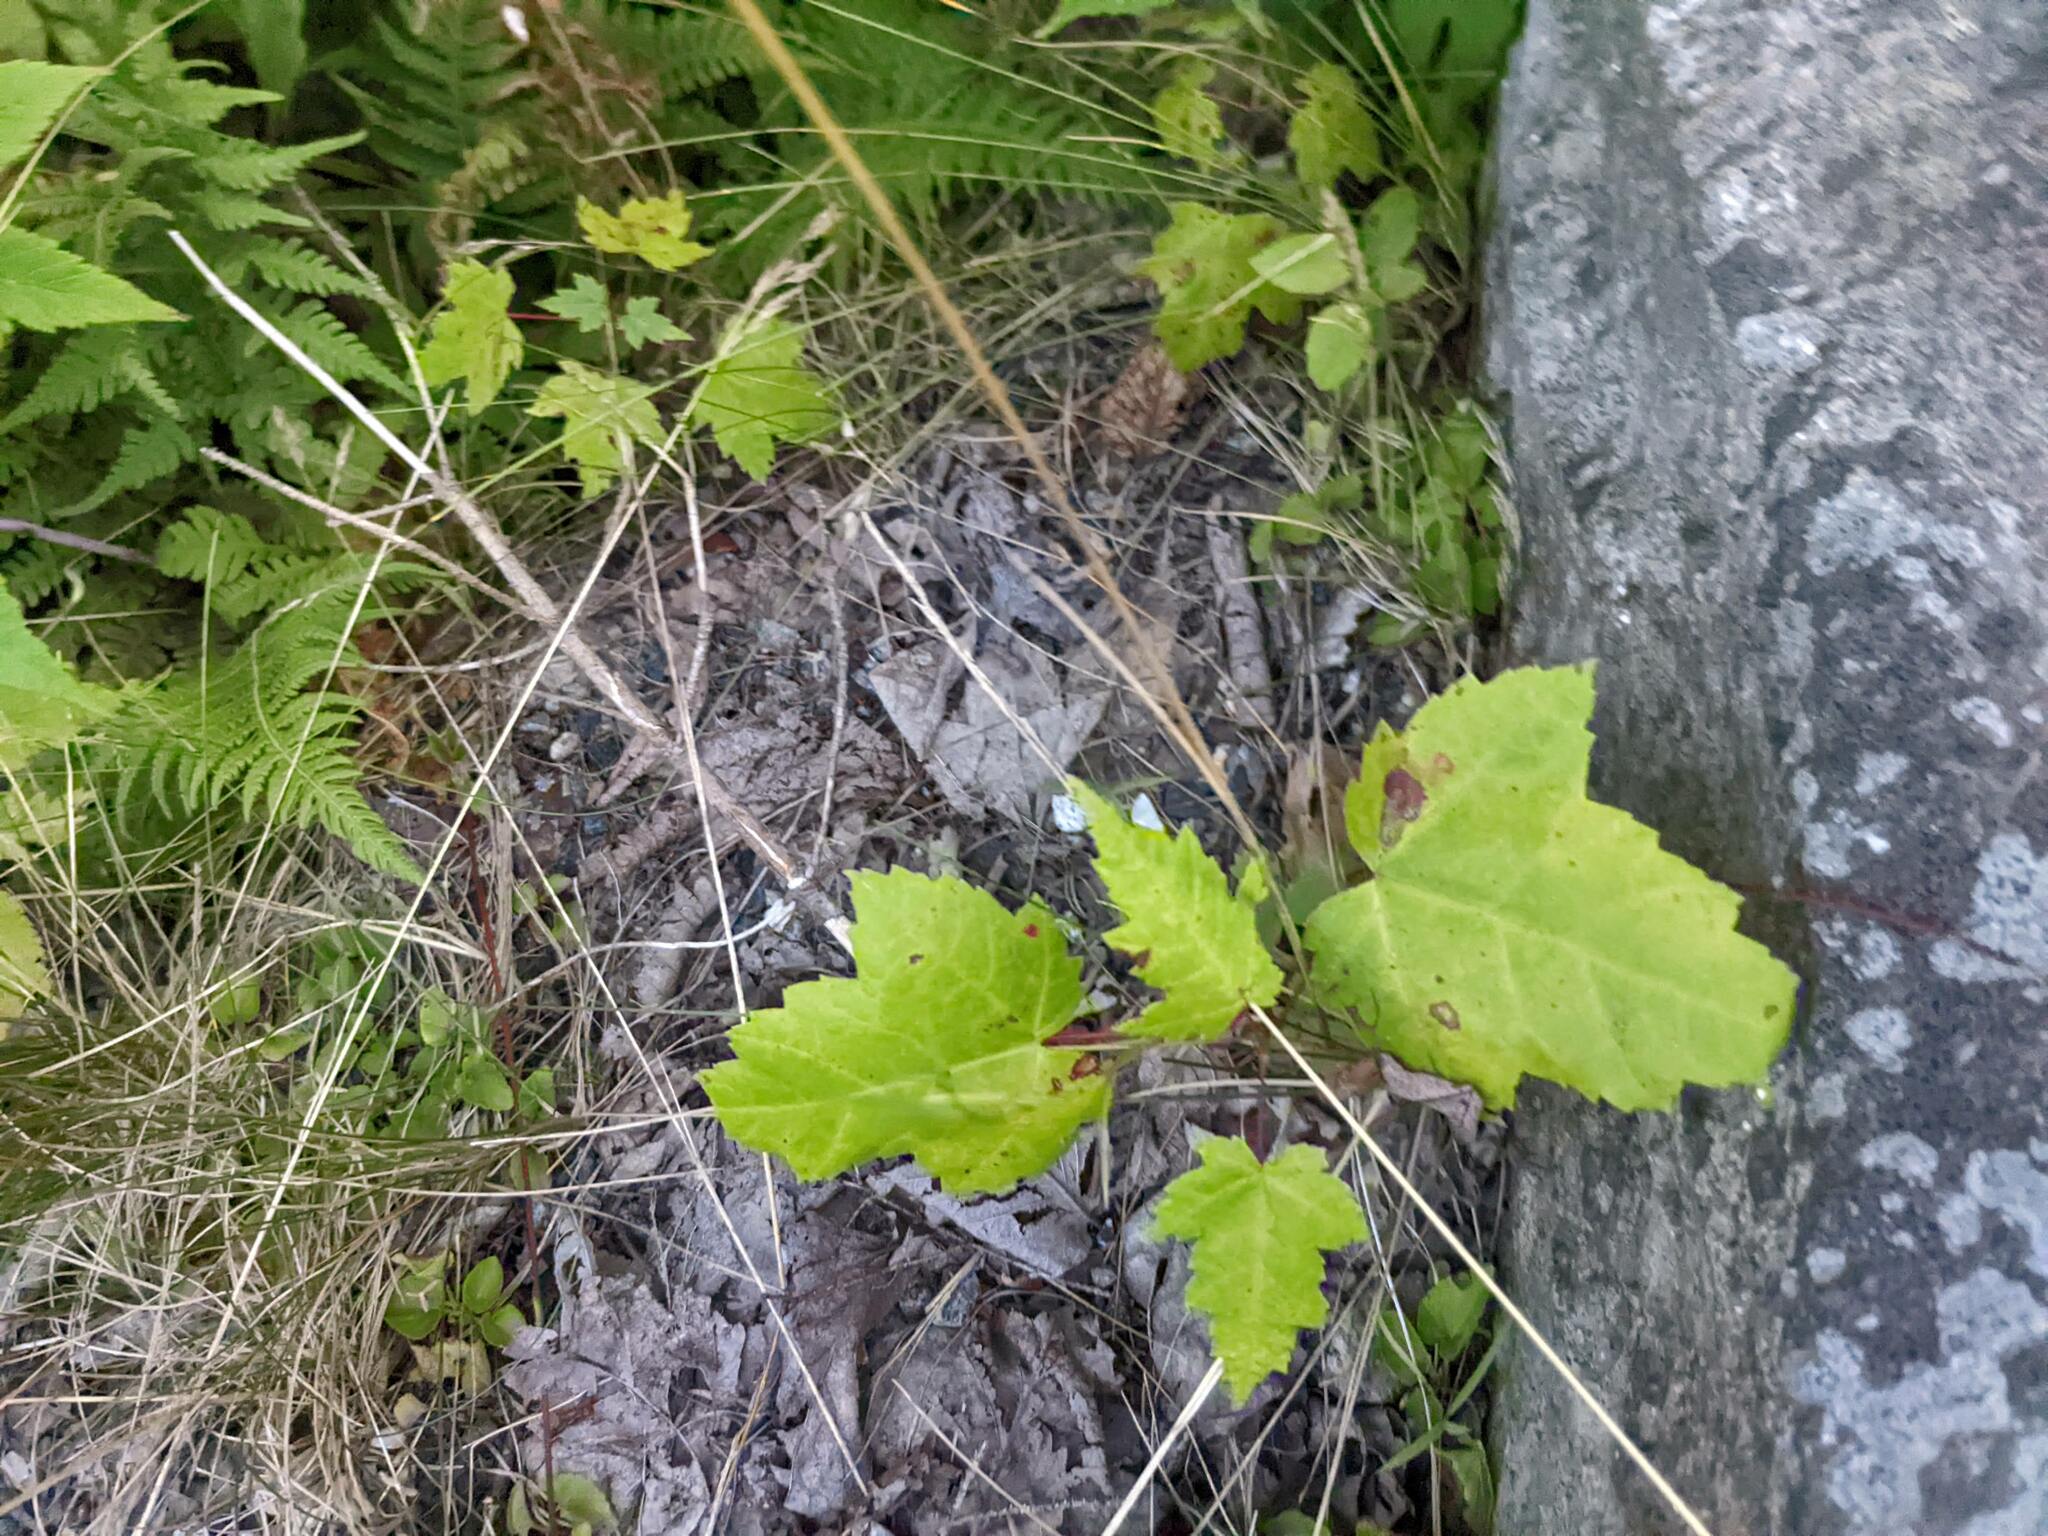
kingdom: Plantae
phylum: Tracheophyta
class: Magnoliopsida
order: Sapindales
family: Sapindaceae
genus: Acer
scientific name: Acer rubrum
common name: Red maple
